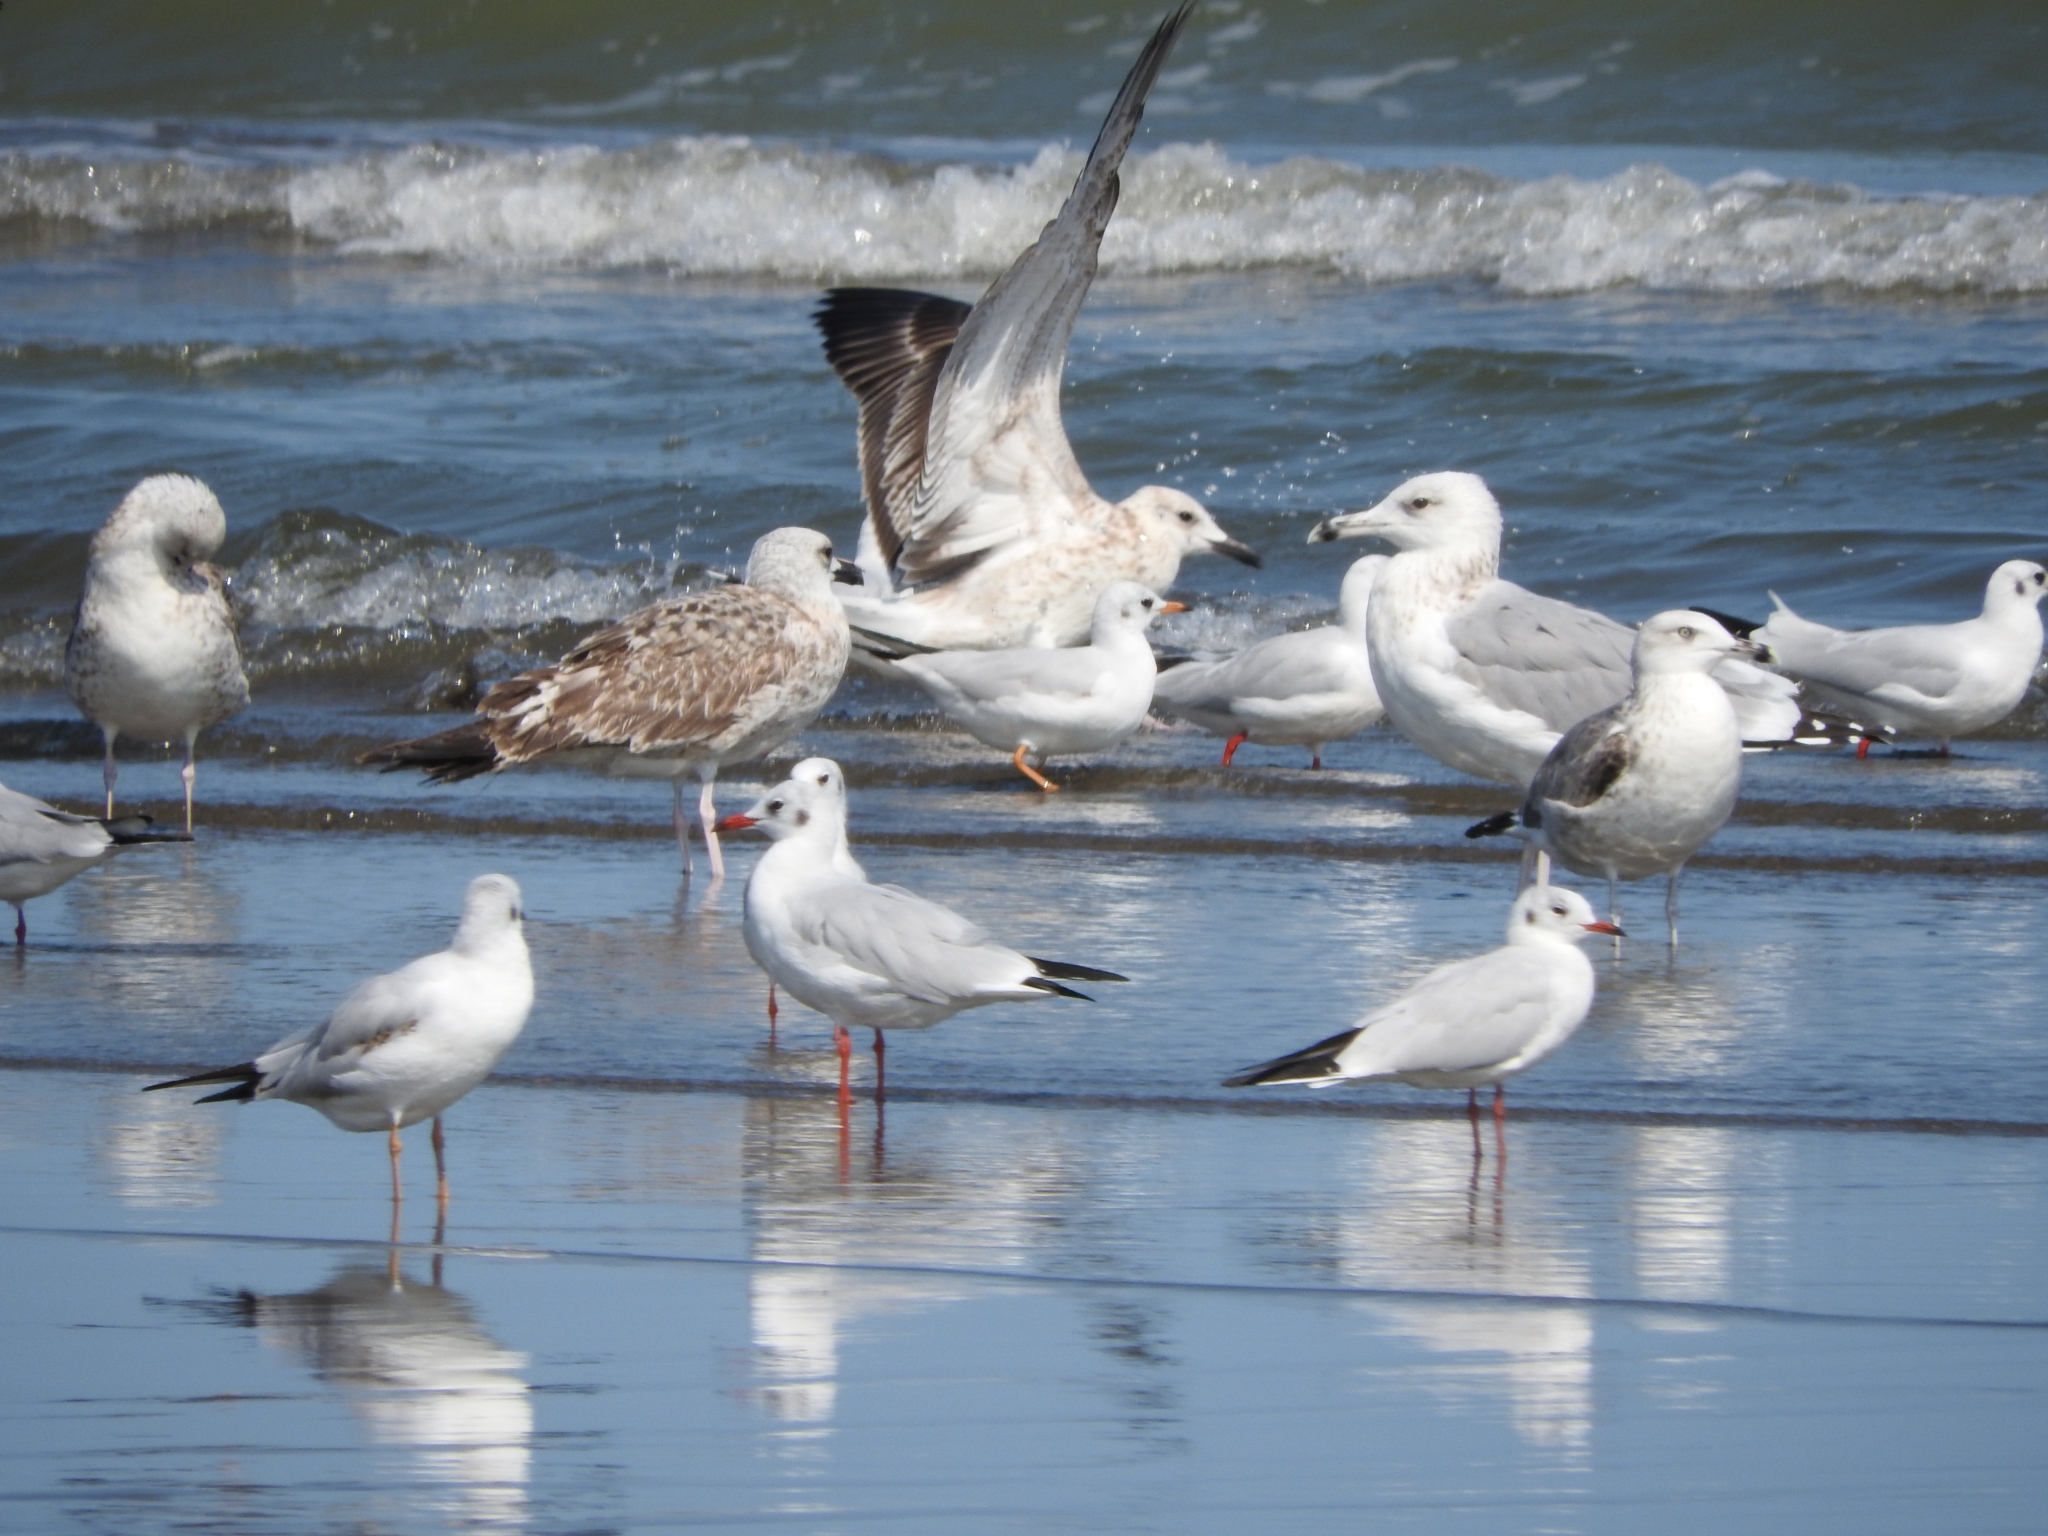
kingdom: Animalia
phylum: Chordata
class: Aves
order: Charadriiformes
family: Laridae
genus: Chroicocephalus
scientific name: Chroicocephalus ridibundus
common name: Black-headed gull
